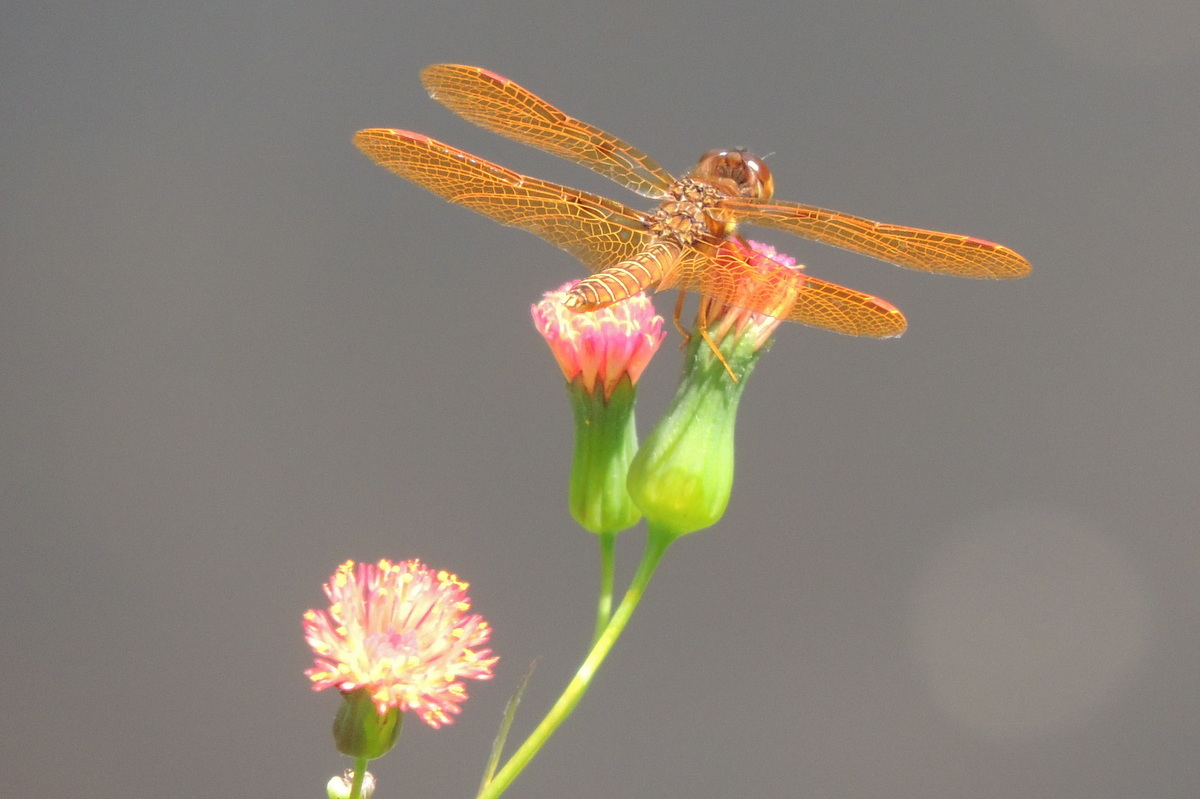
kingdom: Animalia
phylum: Arthropoda
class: Insecta
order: Odonata
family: Libellulidae
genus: Perithemis
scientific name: Perithemis tenera
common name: Eastern amberwing
